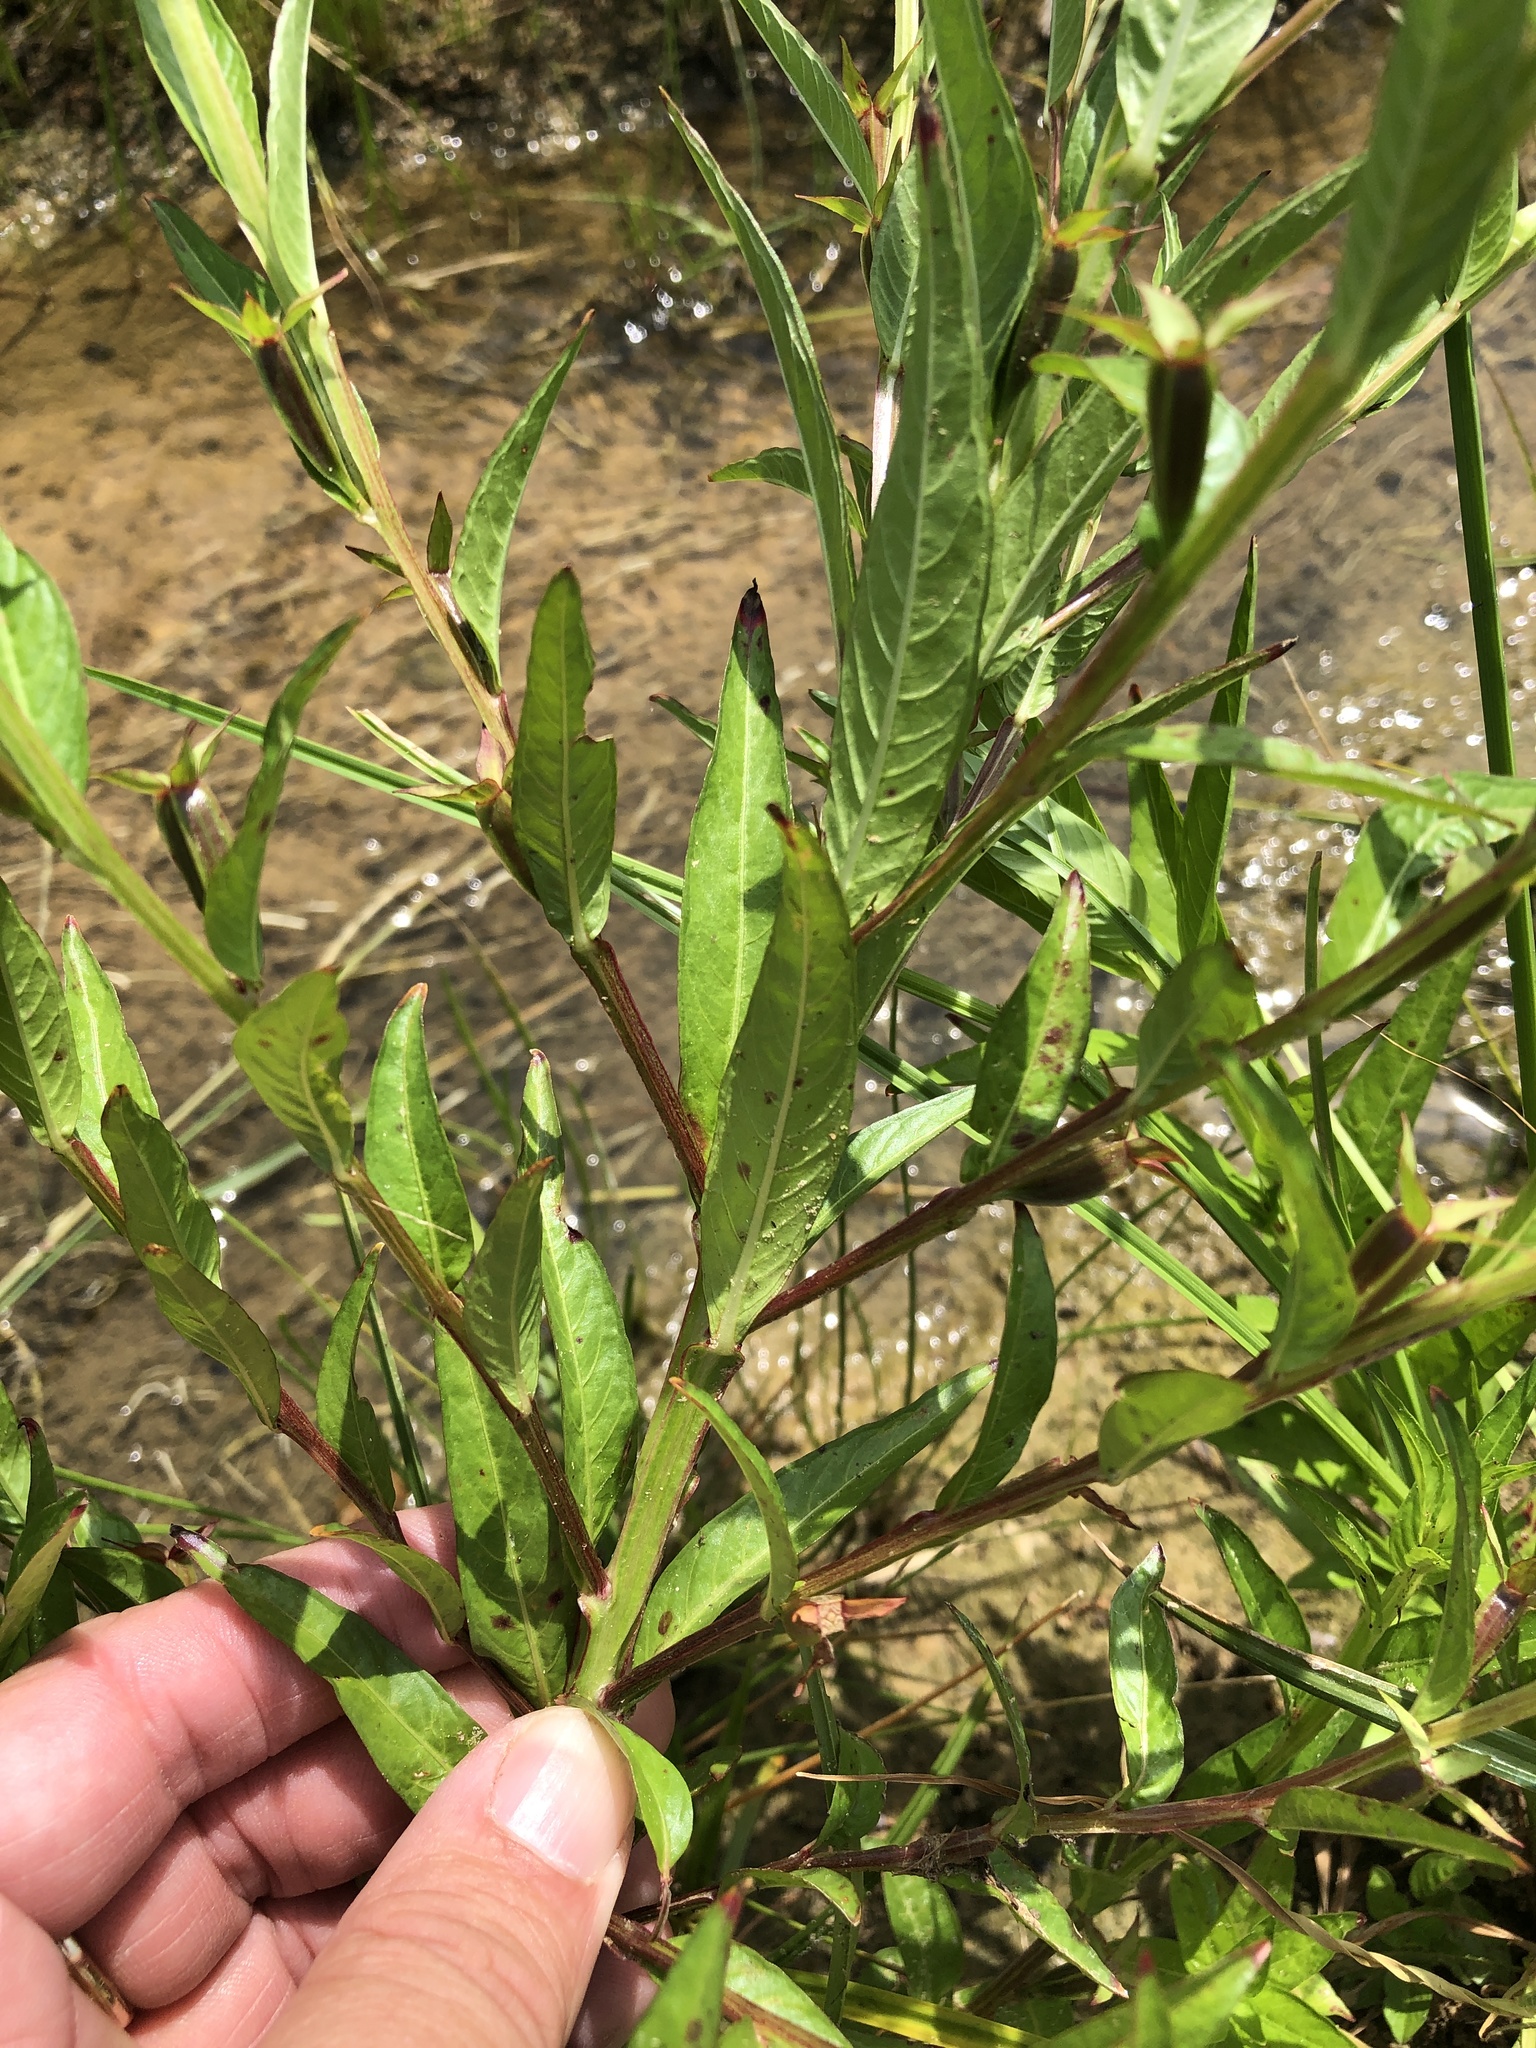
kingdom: Plantae
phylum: Tracheophyta
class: Magnoliopsida
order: Myrtales
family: Onagraceae
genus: Ludwigia
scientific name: Ludwigia decurrens
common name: Winged water-primrose
